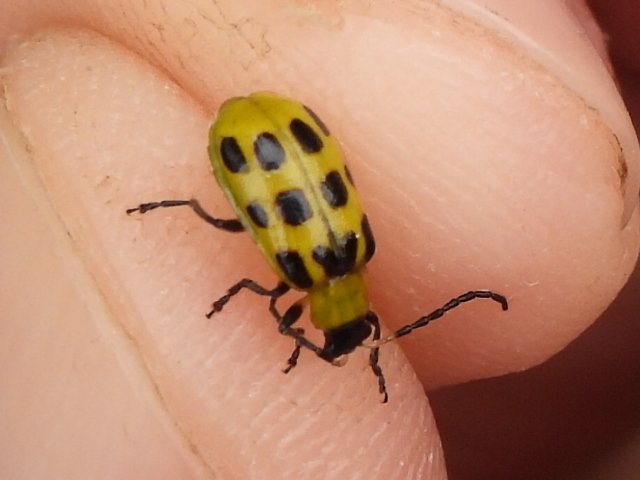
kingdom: Animalia
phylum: Arthropoda
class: Insecta
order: Coleoptera
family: Chrysomelidae
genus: Diabrotica
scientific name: Diabrotica undecimpunctata
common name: Spotted cucumber beetle
